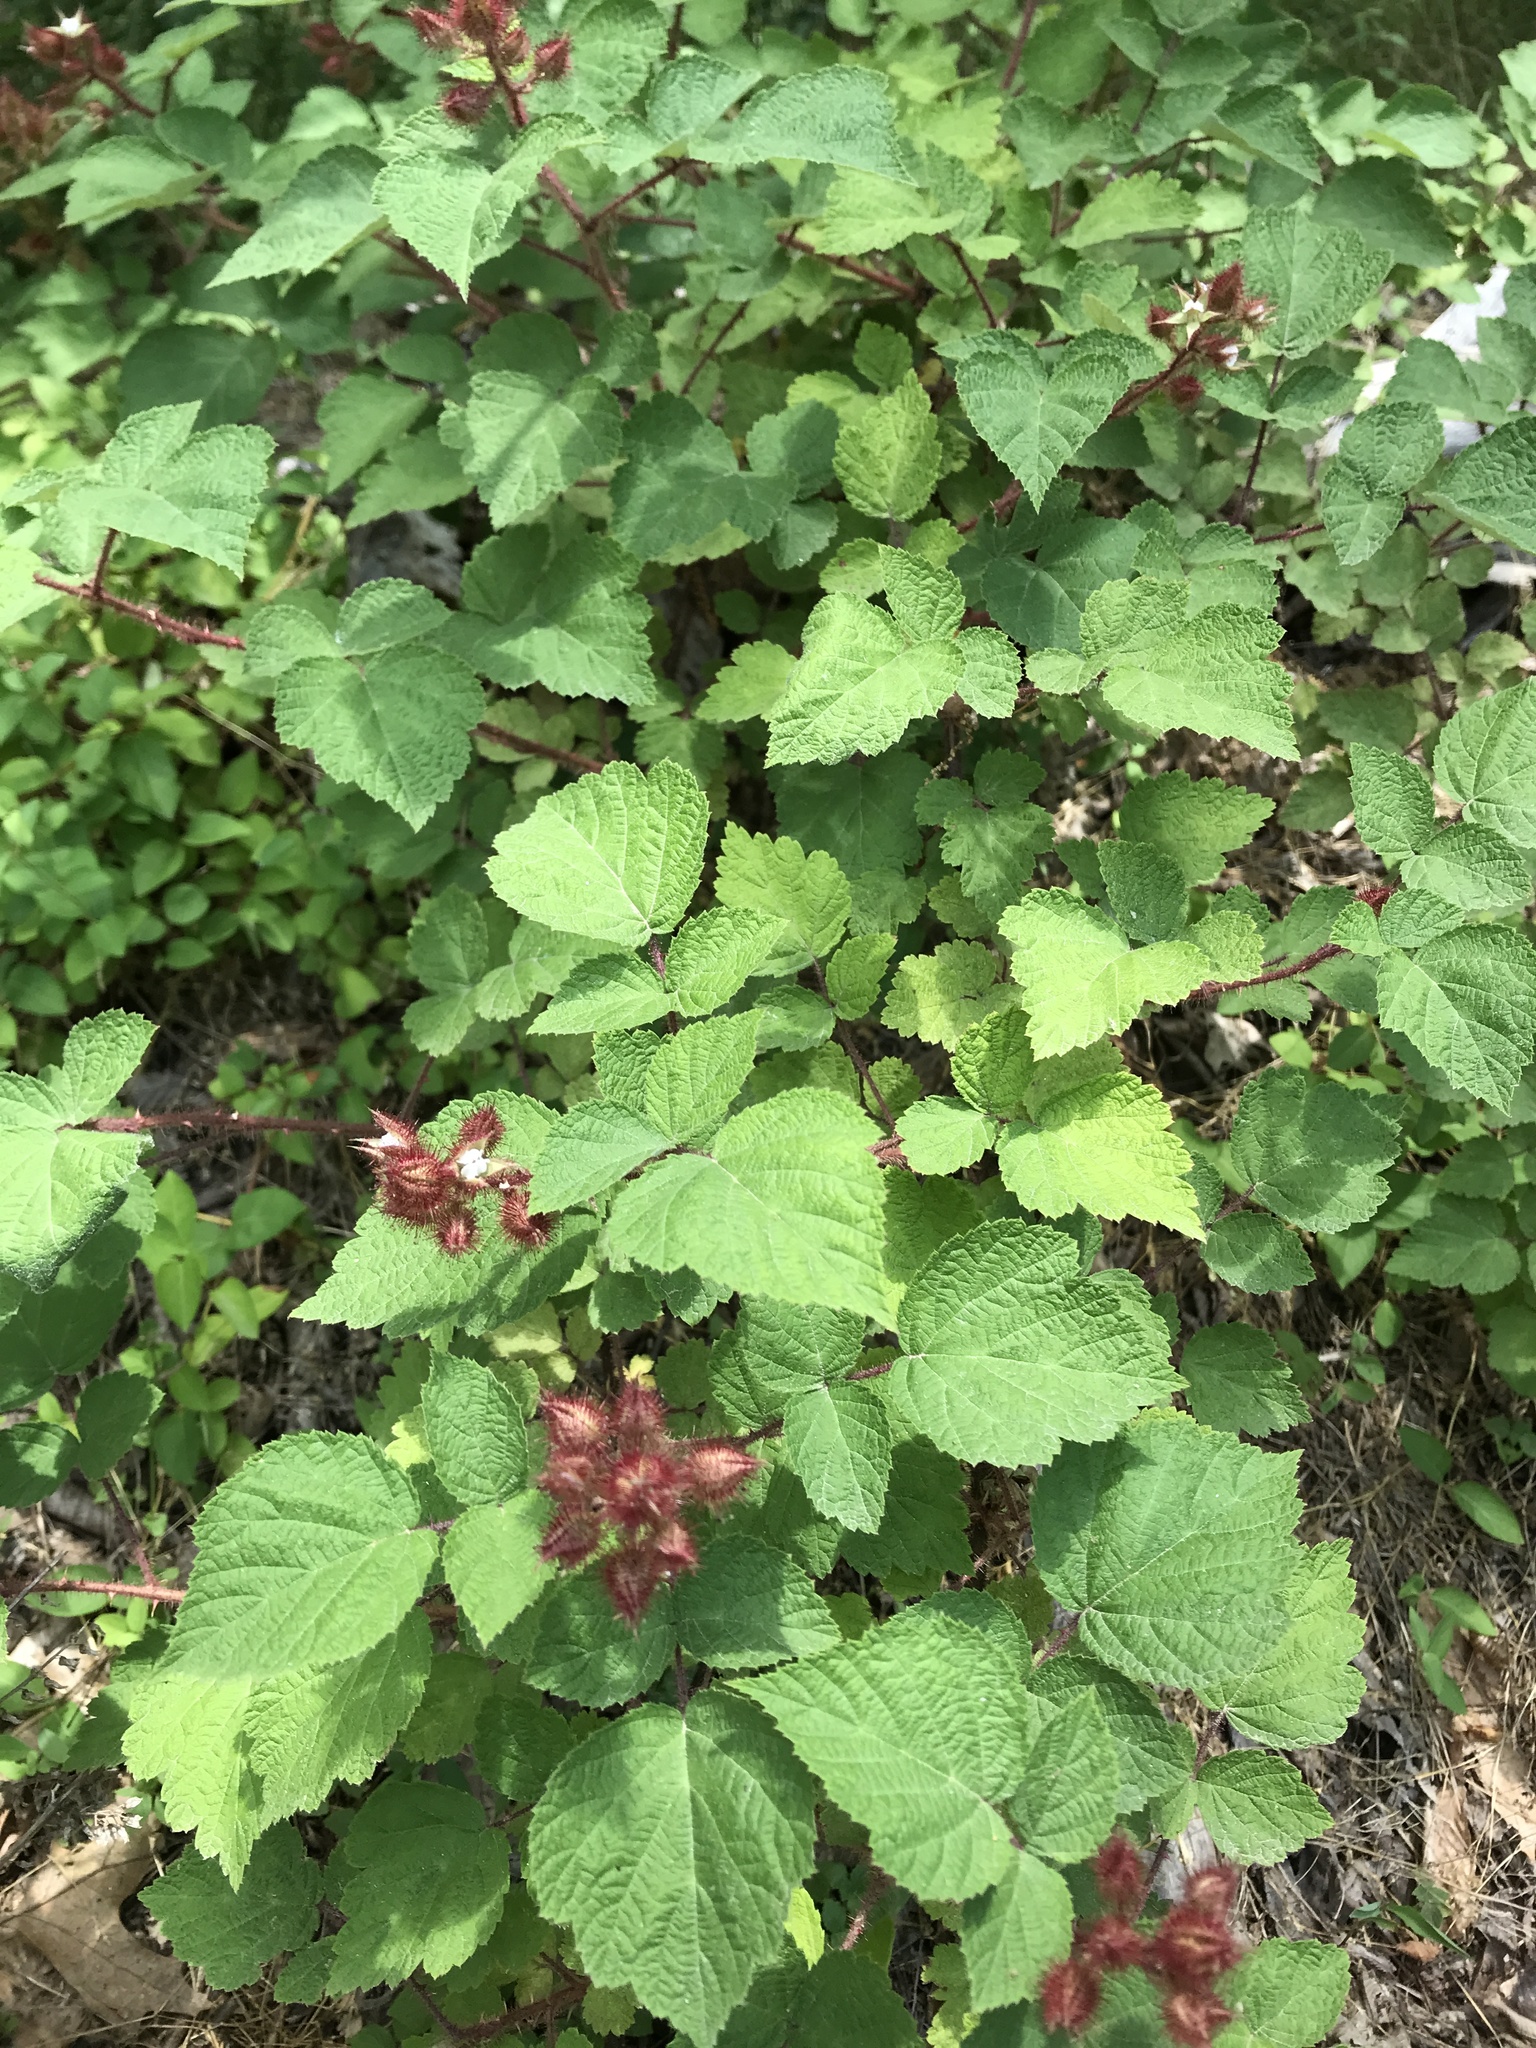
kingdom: Plantae
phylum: Tracheophyta
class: Magnoliopsida
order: Rosales
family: Rosaceae
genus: Rubus
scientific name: Rubus phoenicolasius
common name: Japanese wineberry
